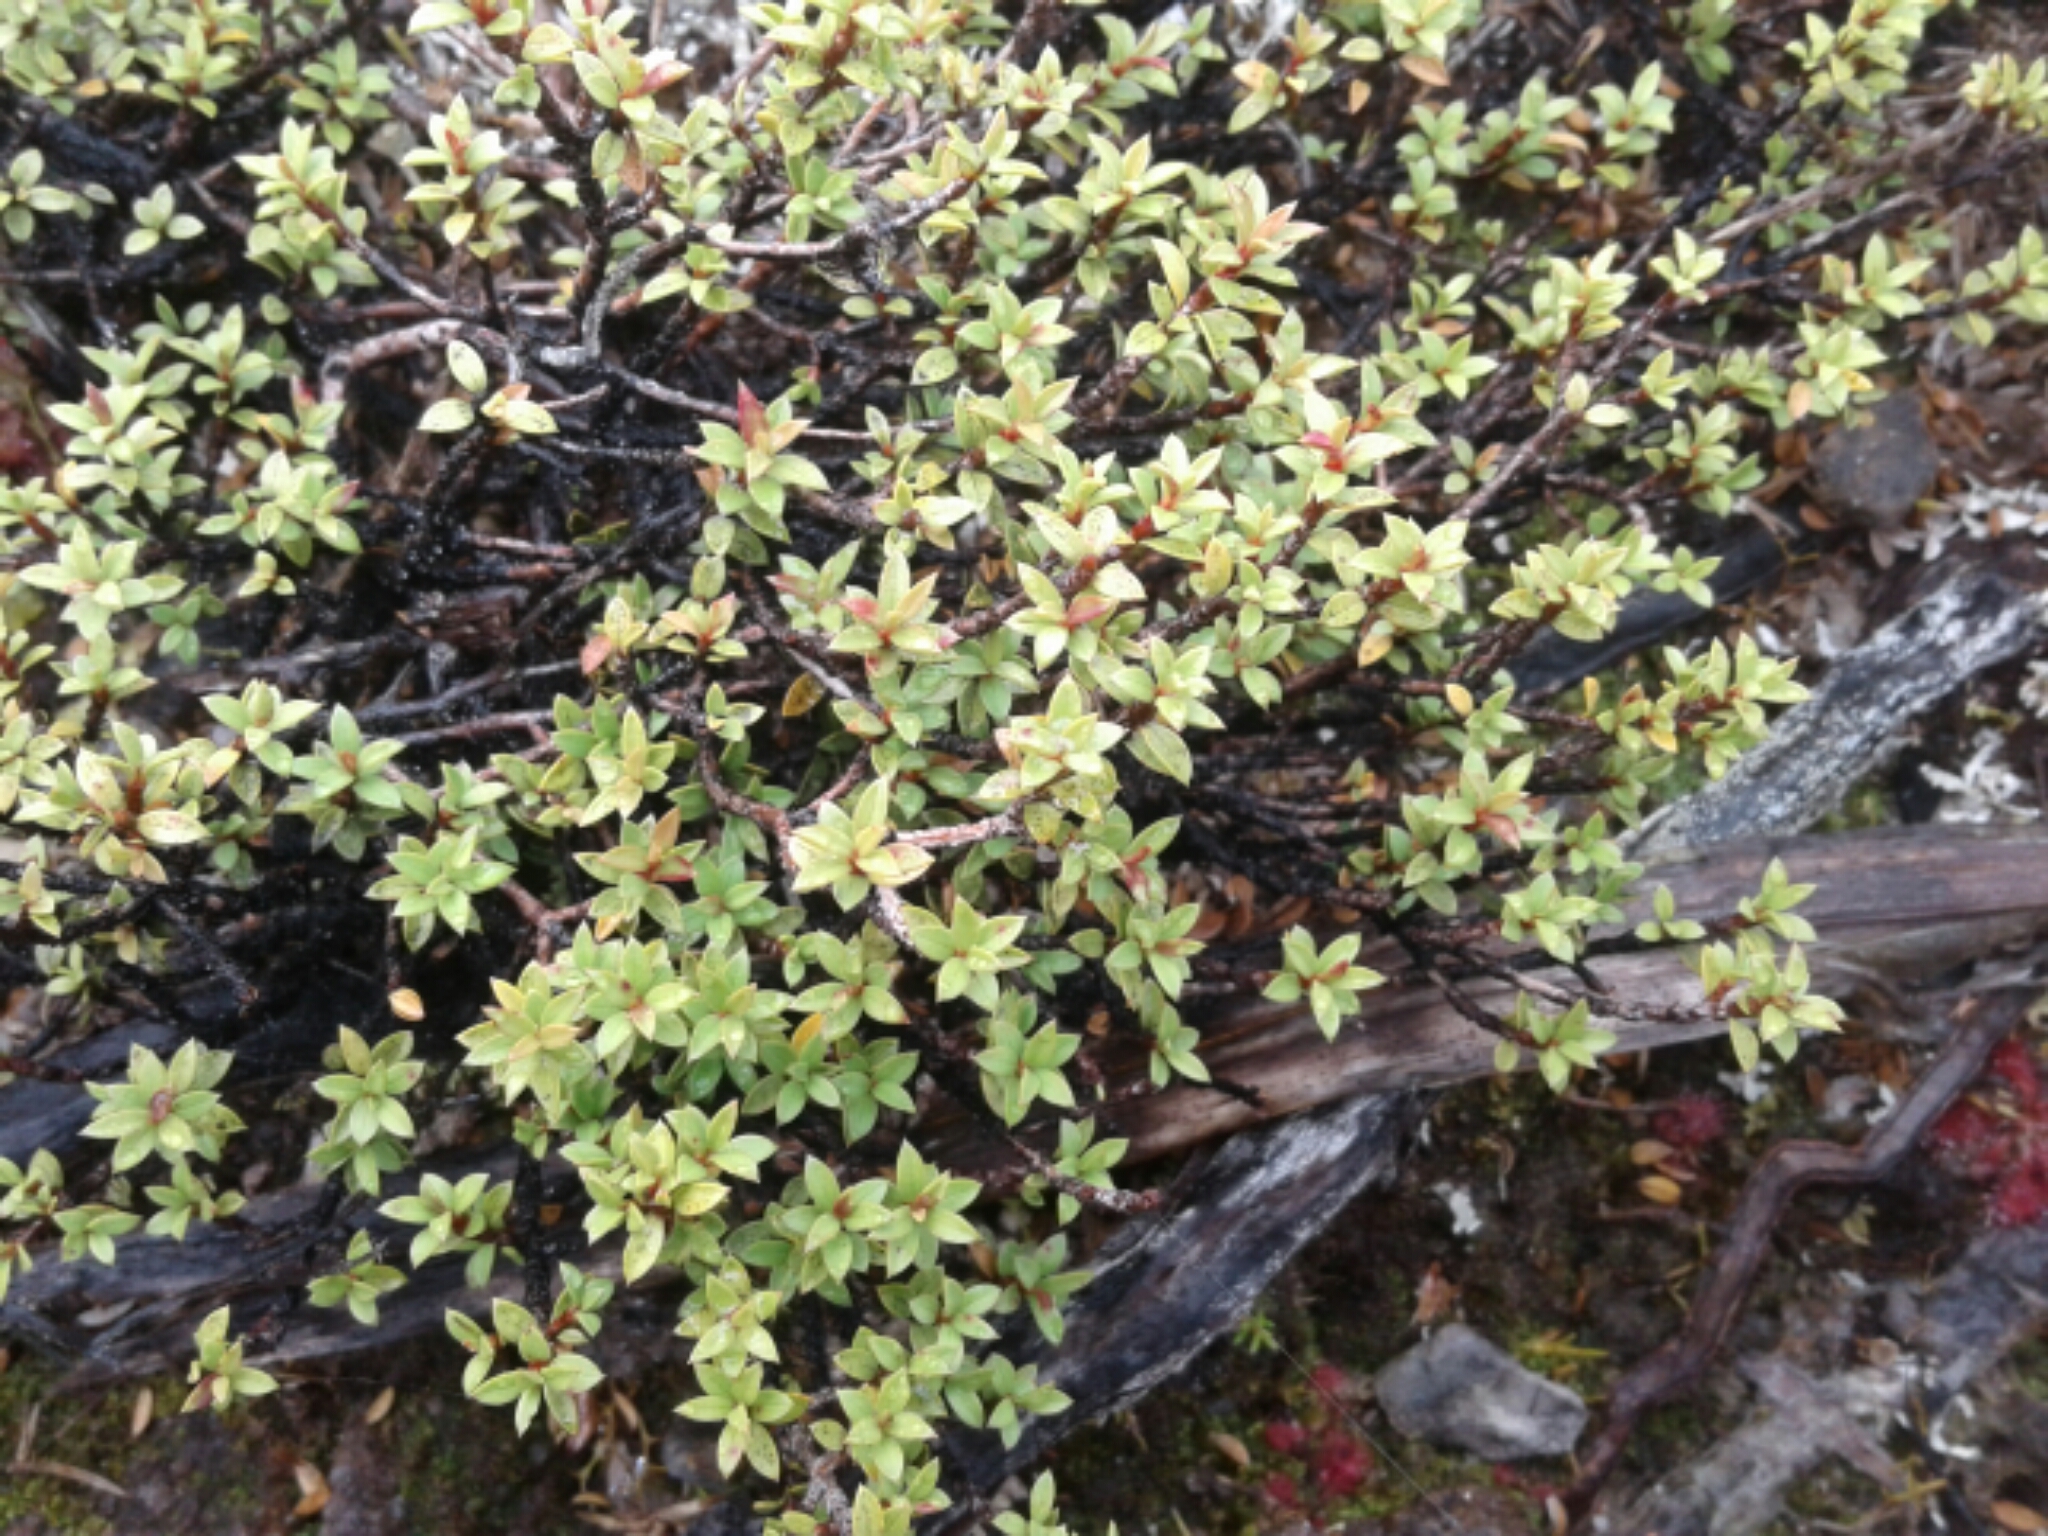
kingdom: Plantae
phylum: Tracheophyta
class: Magnoliopsida
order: Ericales
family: Ericaceae
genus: Archeria
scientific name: Archeria traversii
